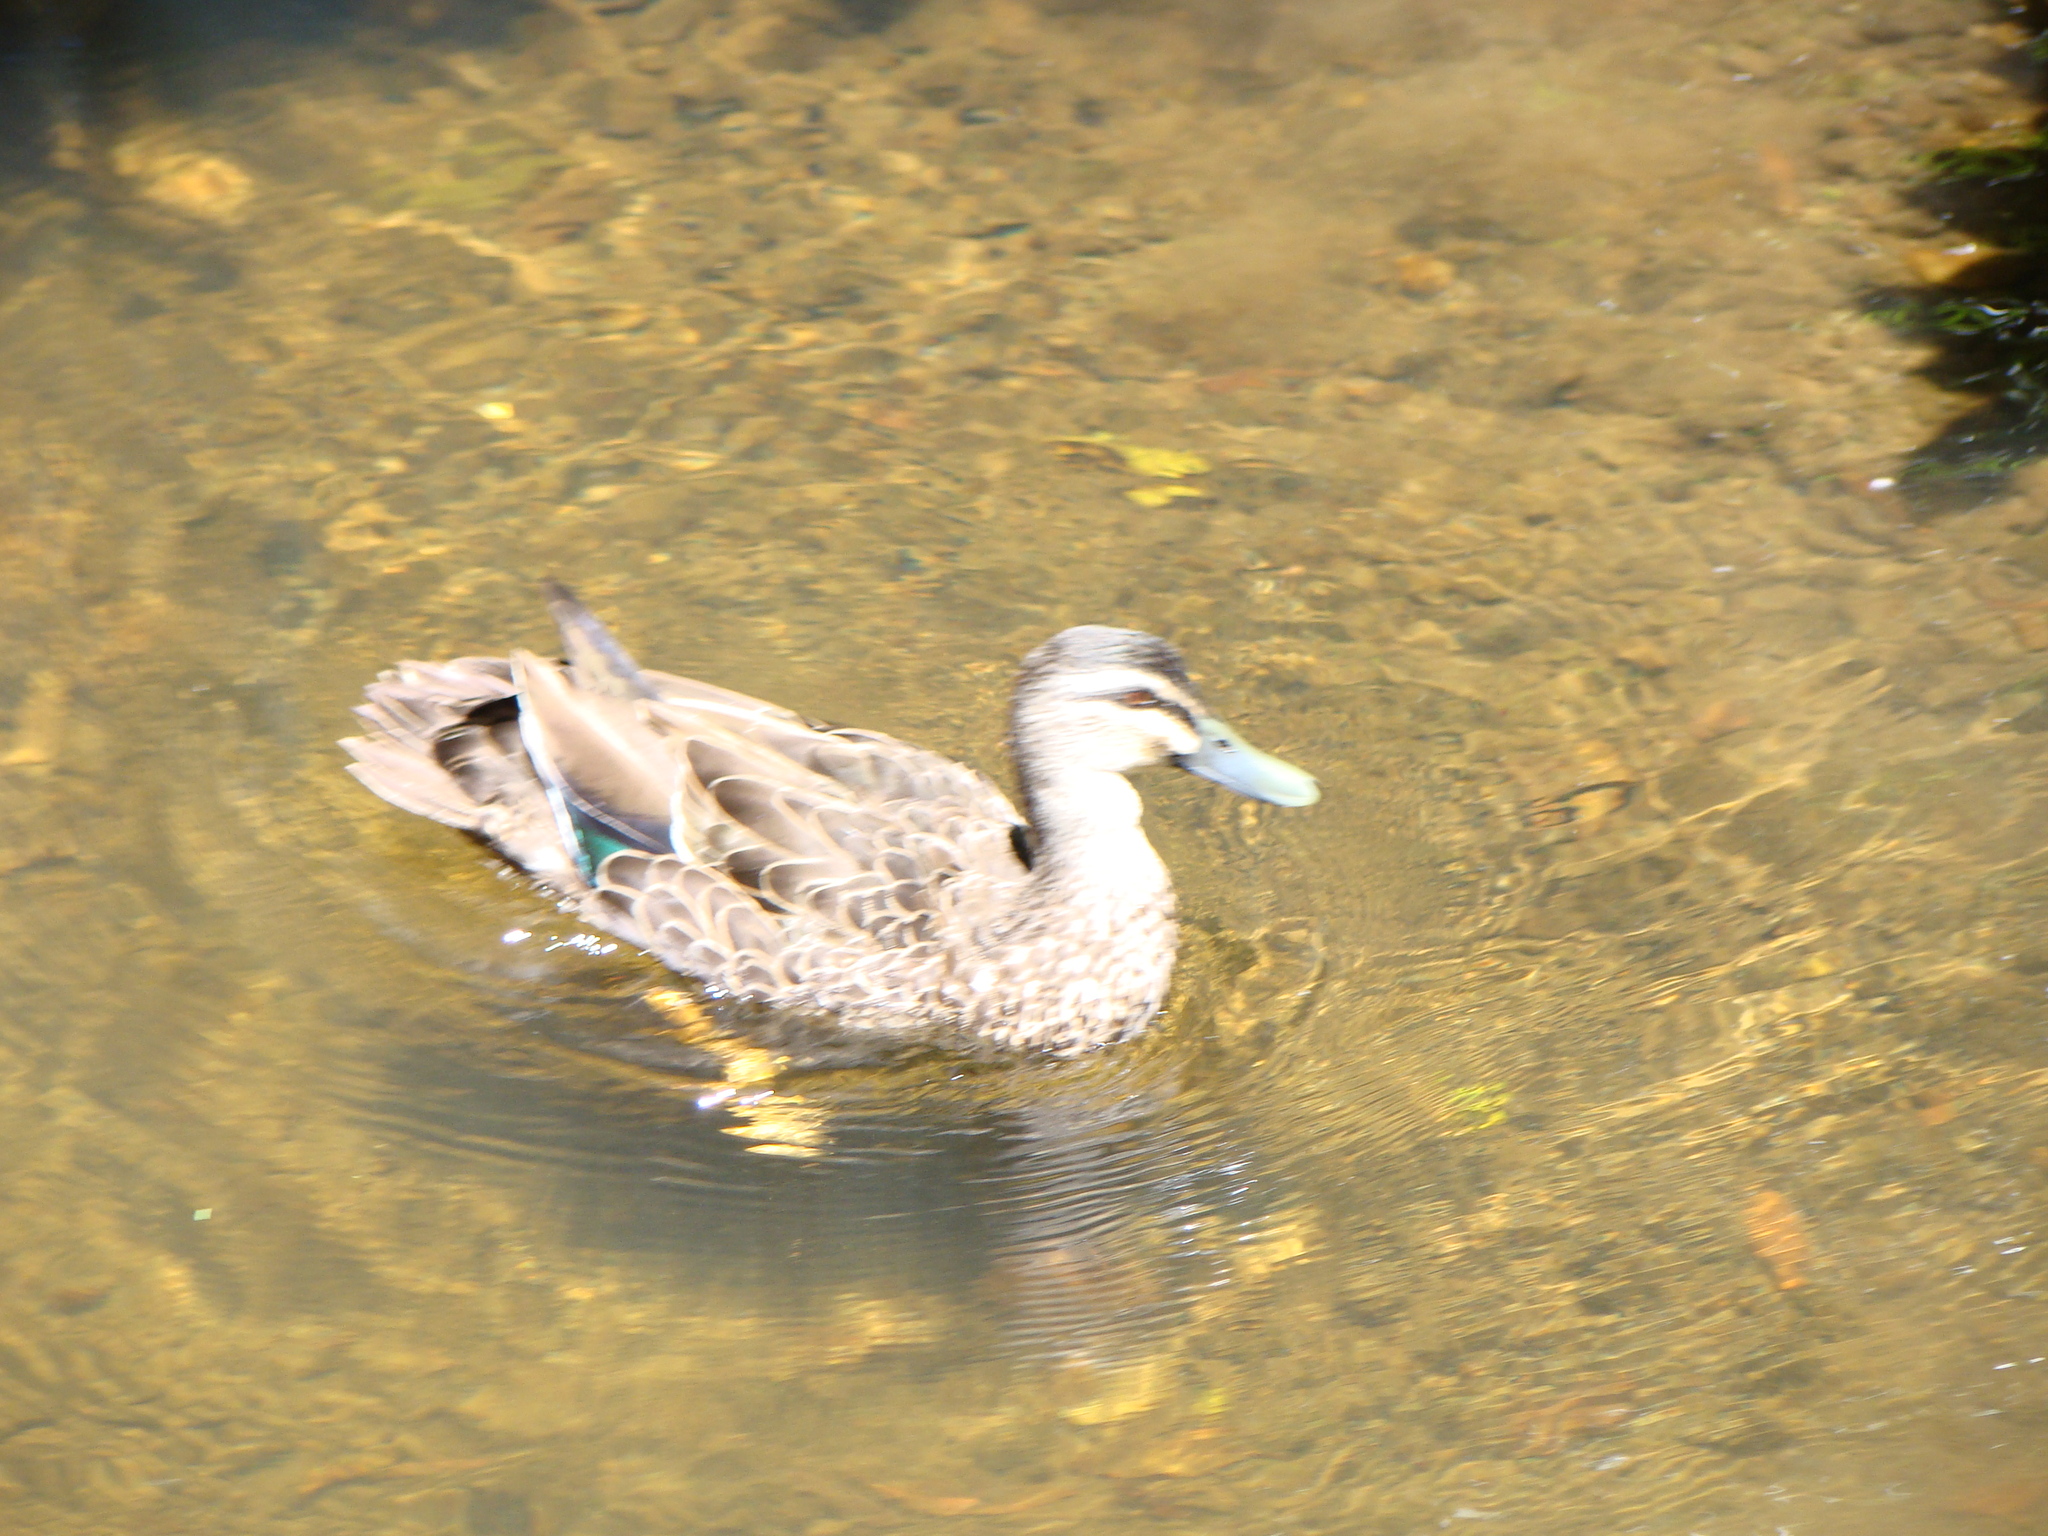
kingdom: Animalia
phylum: Chordata
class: Aves
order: Anseriformes
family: Anatidae
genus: Anas
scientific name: Anas
